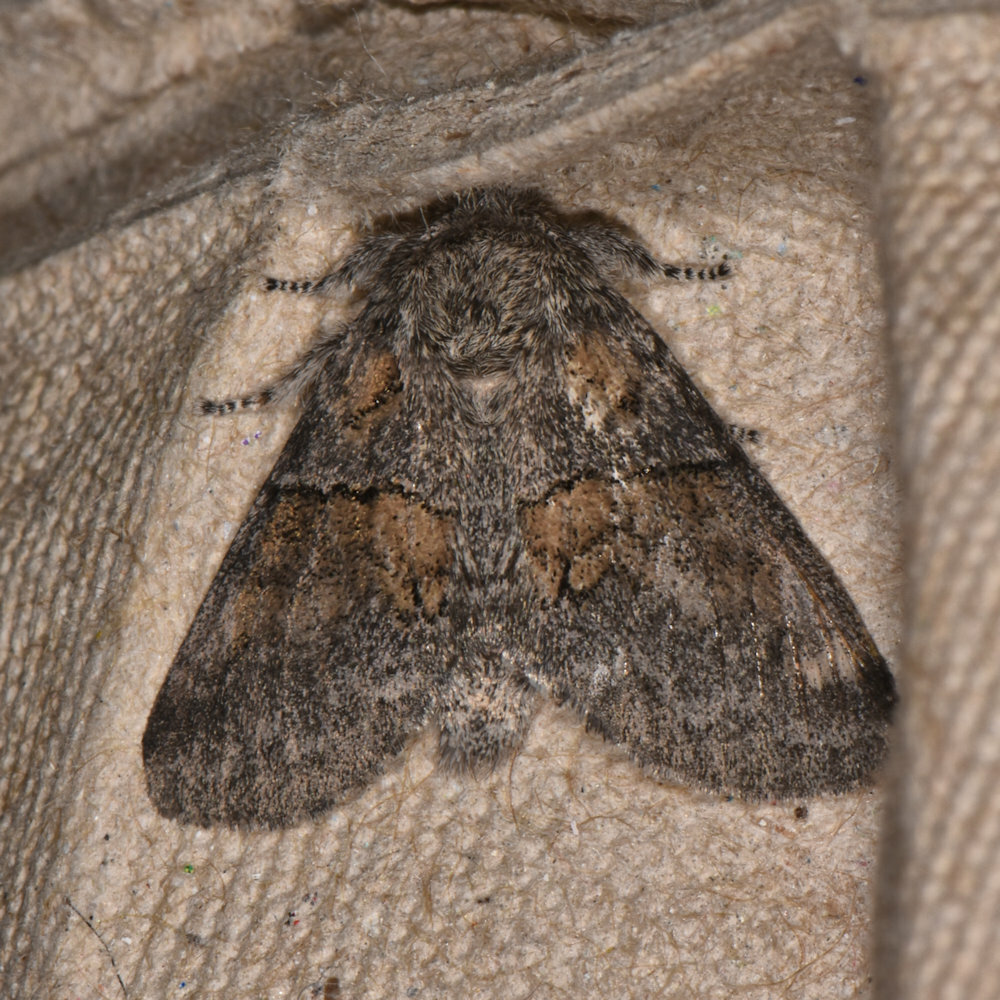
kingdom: Animalia
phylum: Arthropoda
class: Insecta
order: Lepidoptera
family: Notodontidae
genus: Gluphisia
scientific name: Gluphisia septentrionis
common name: Common gluphisia
